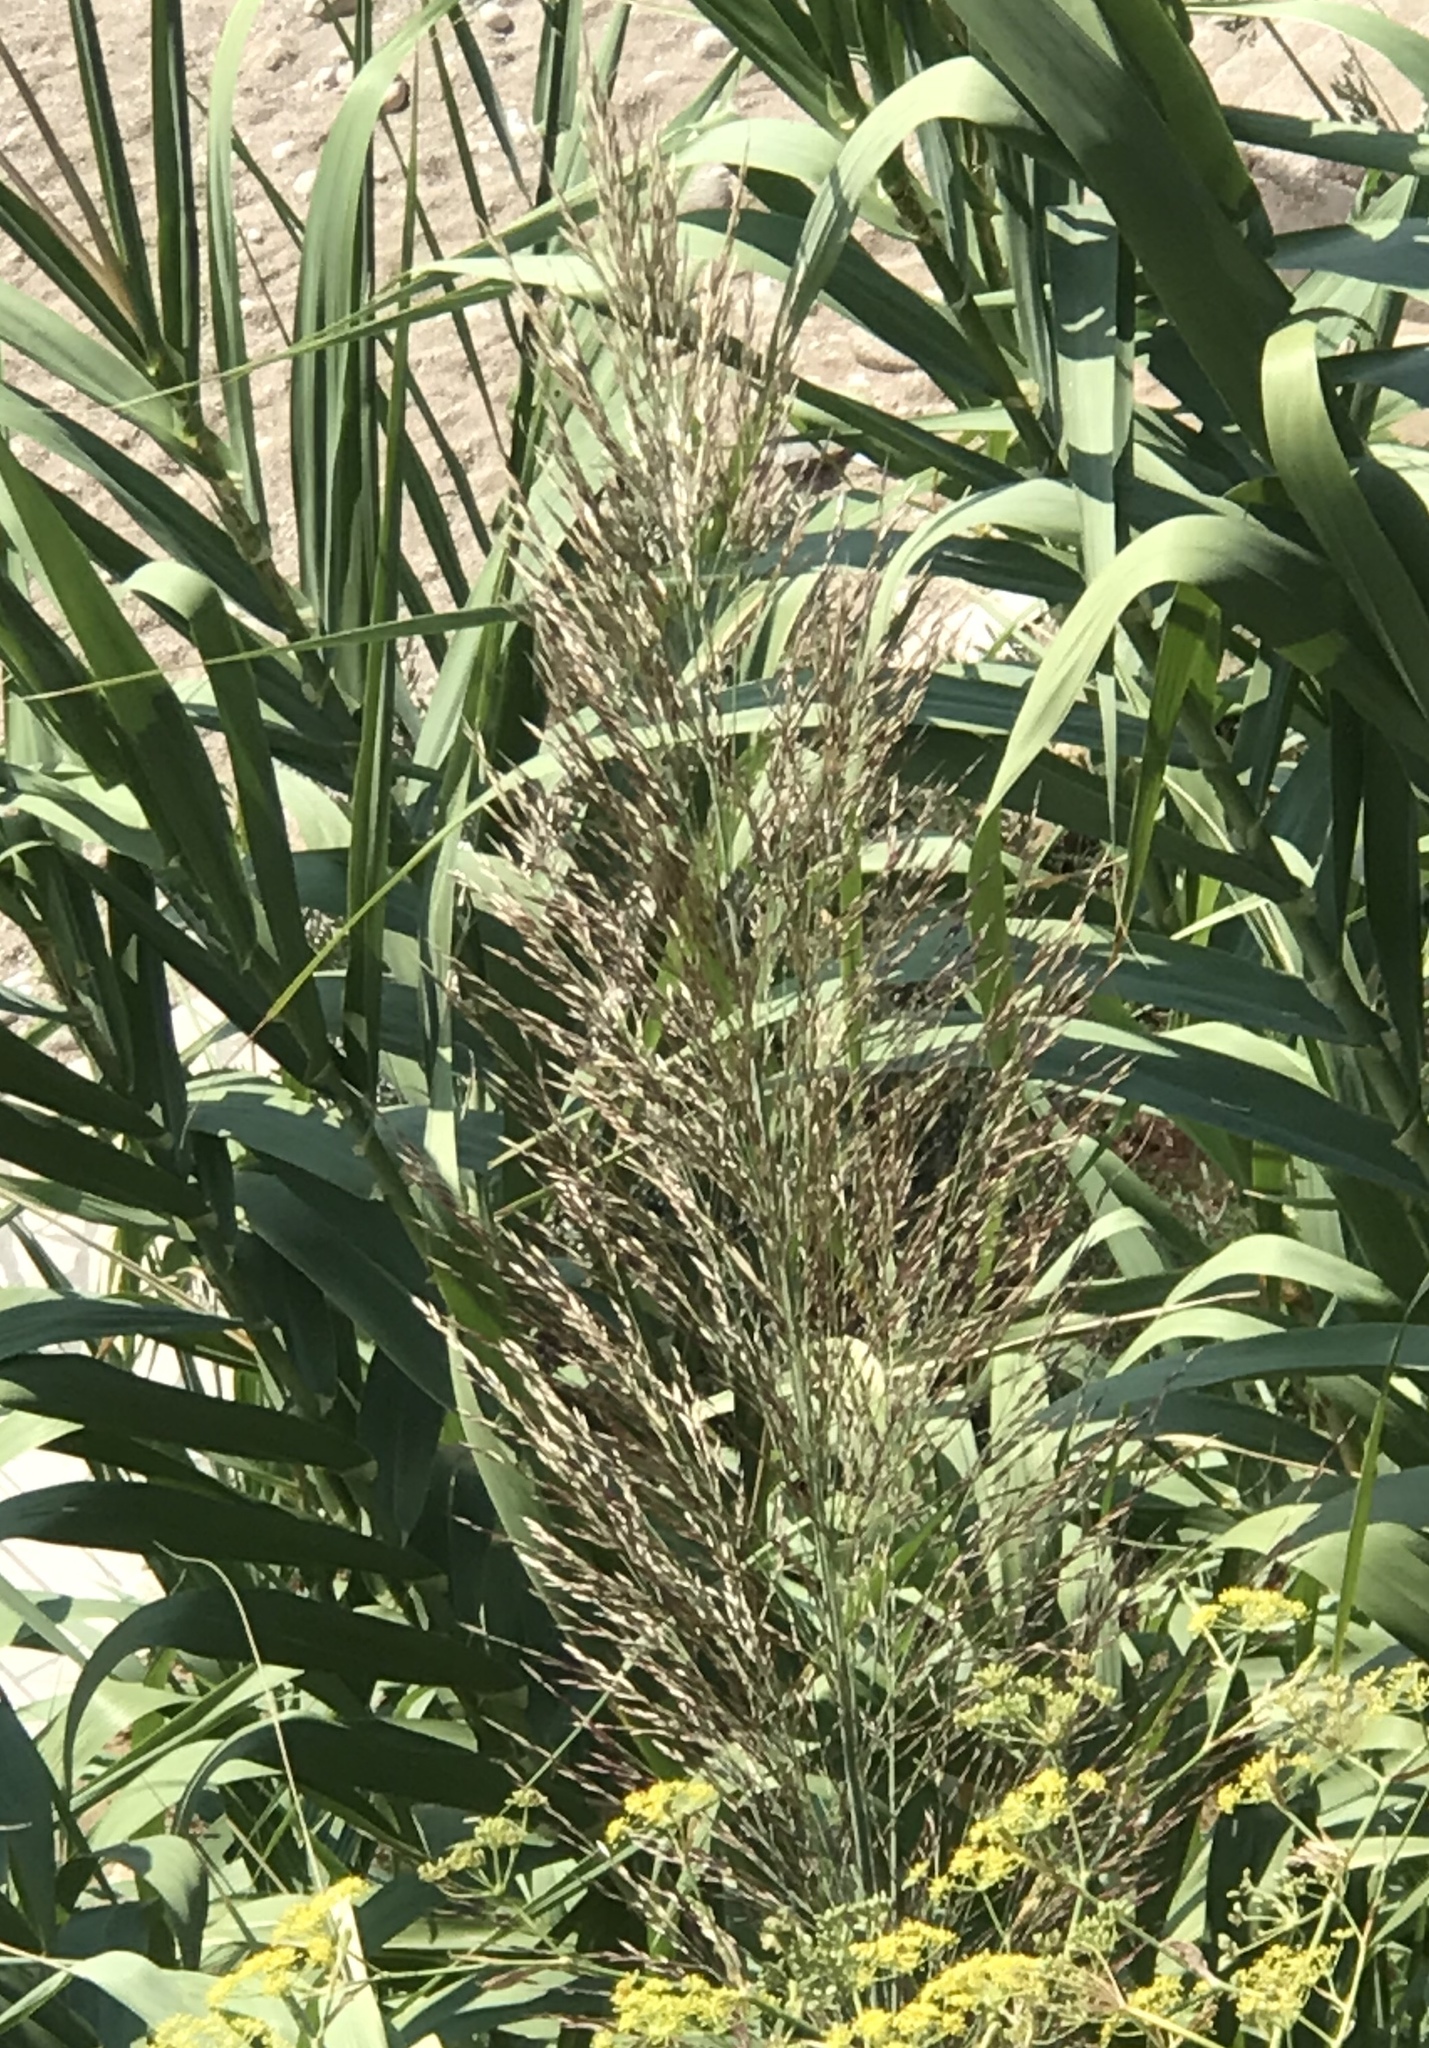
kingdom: Plantae
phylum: Tracheophyta
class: Liliopsida
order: Poales
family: Poaceae
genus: Arundo
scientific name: Arundo donax
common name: Giant reed
